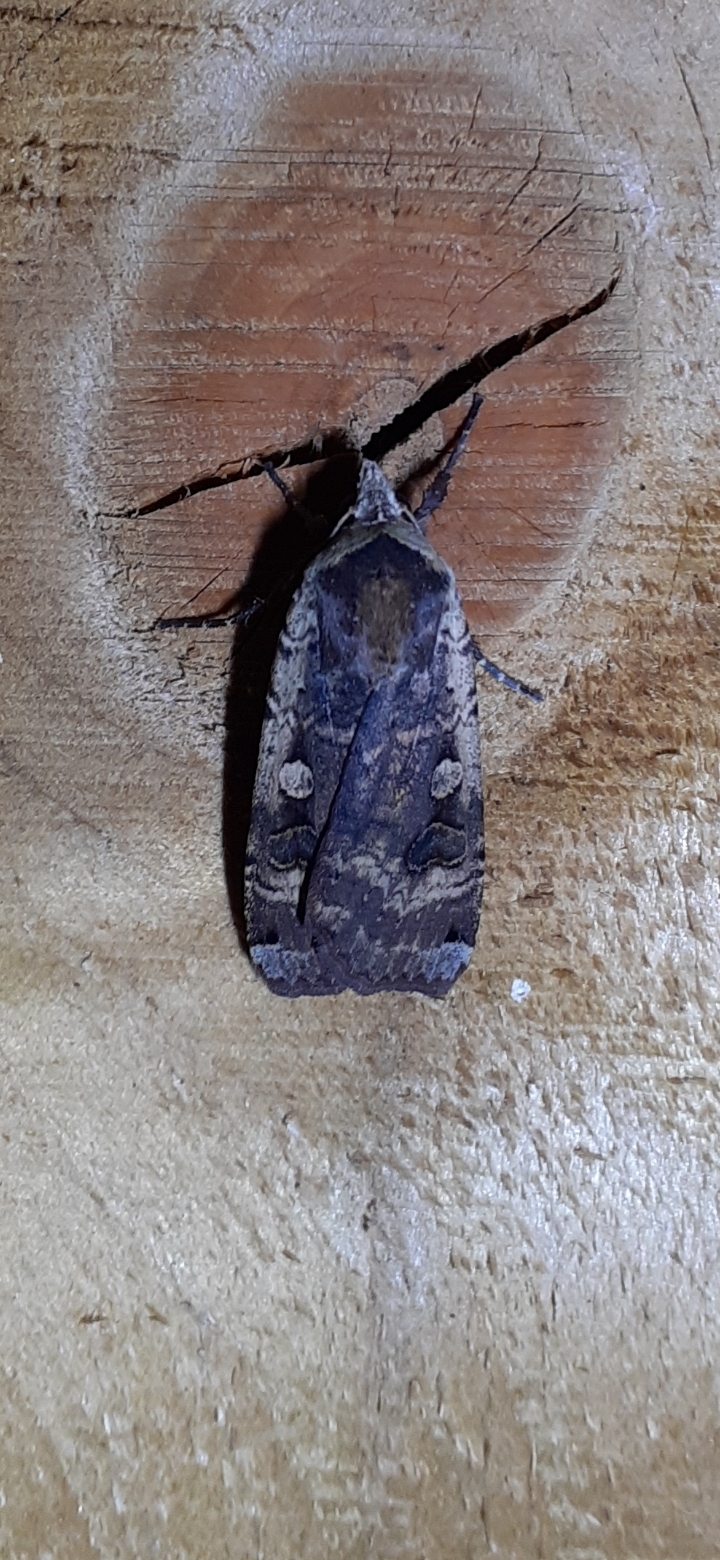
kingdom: Animalia
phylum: Arthropoda
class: Insecta
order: Lepidoptera
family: Noctuidae
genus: Noctua
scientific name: Noctua pronuba
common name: Large yellow underwing
